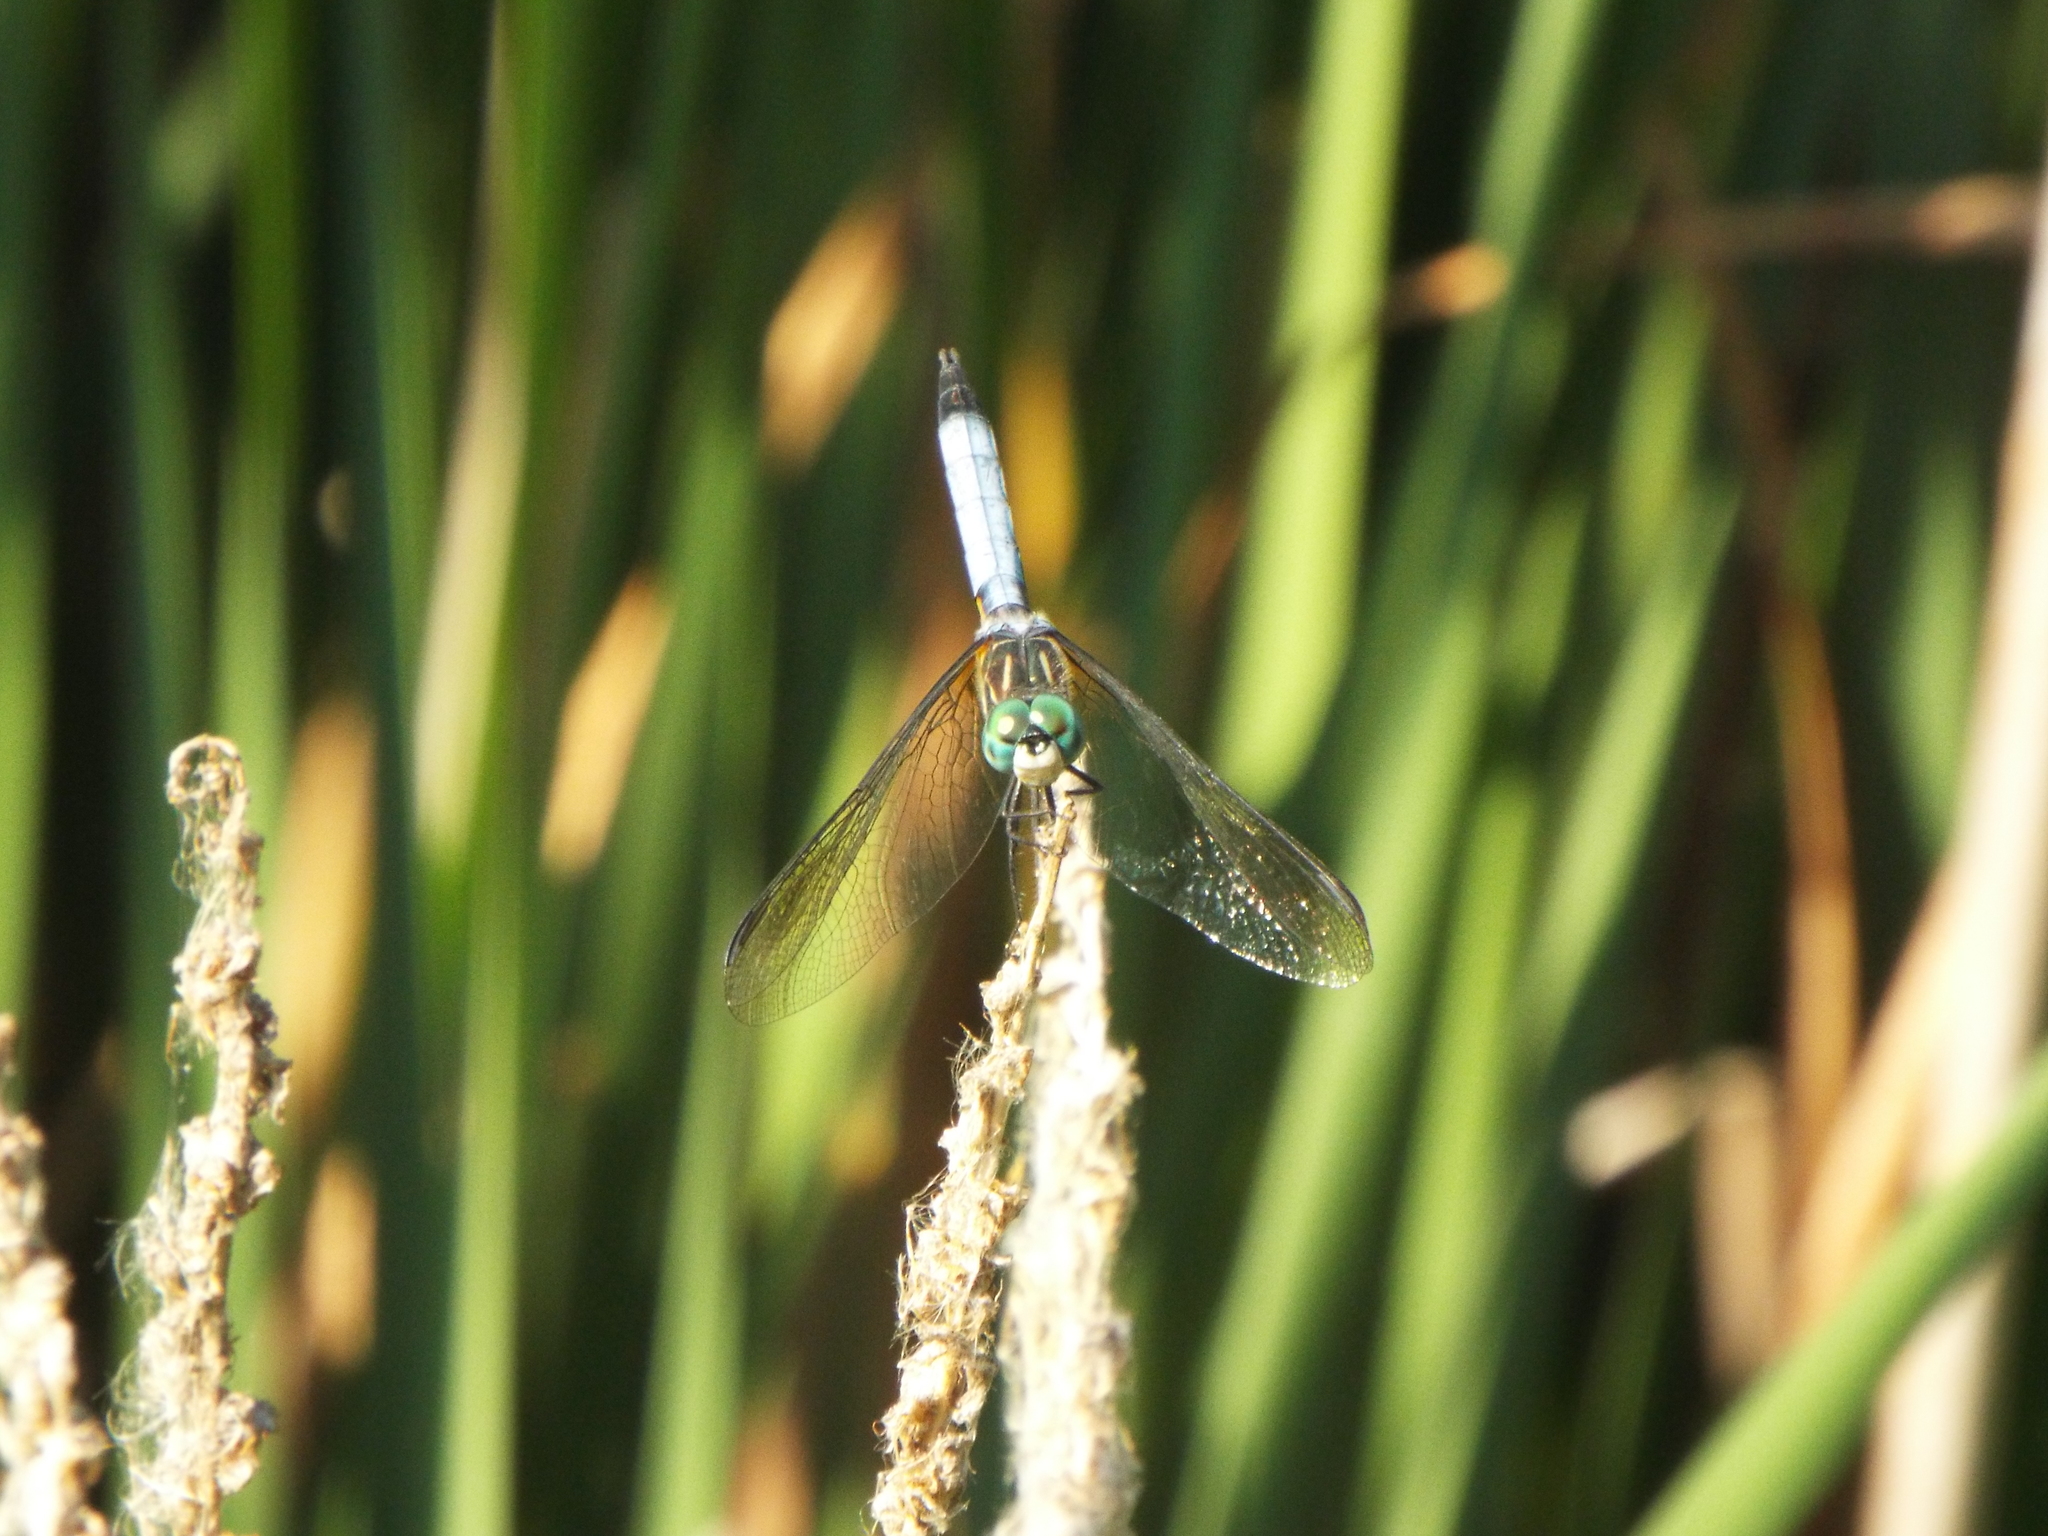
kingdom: Animalia
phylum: Arthropoda
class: Insecta
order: Odonata
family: Libellulidae
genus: Pachydiplax
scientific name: Pachydiplax longipennis
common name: Blue dasher
